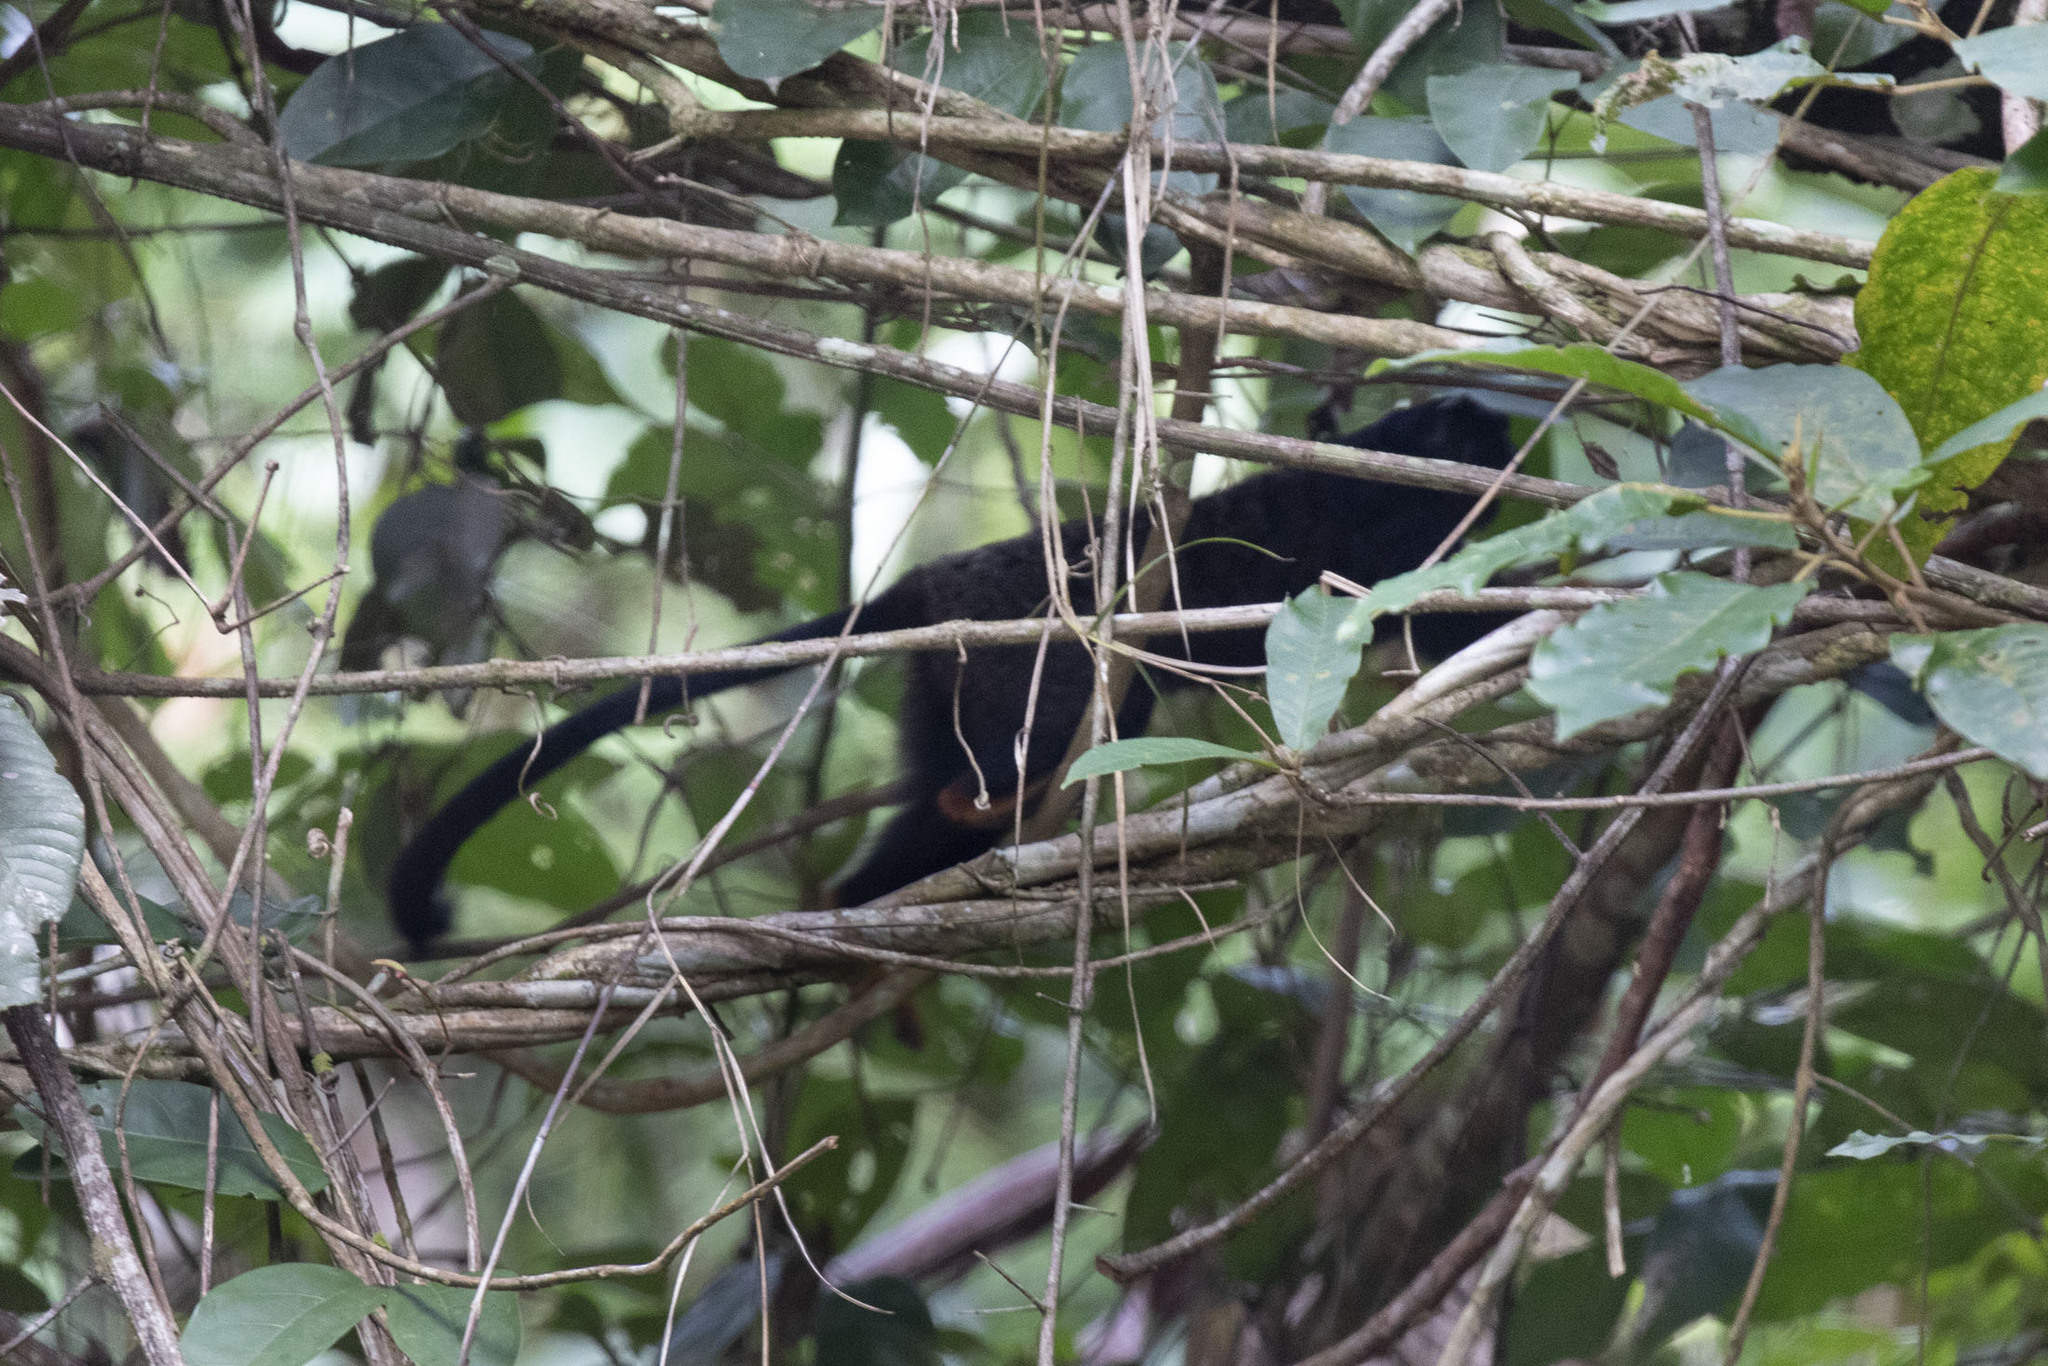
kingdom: Animalia
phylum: Chordata
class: Mammalia
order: Primates
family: Callitrichidae
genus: Saguinus
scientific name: Saguinus midas
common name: Red-handed tamarin
